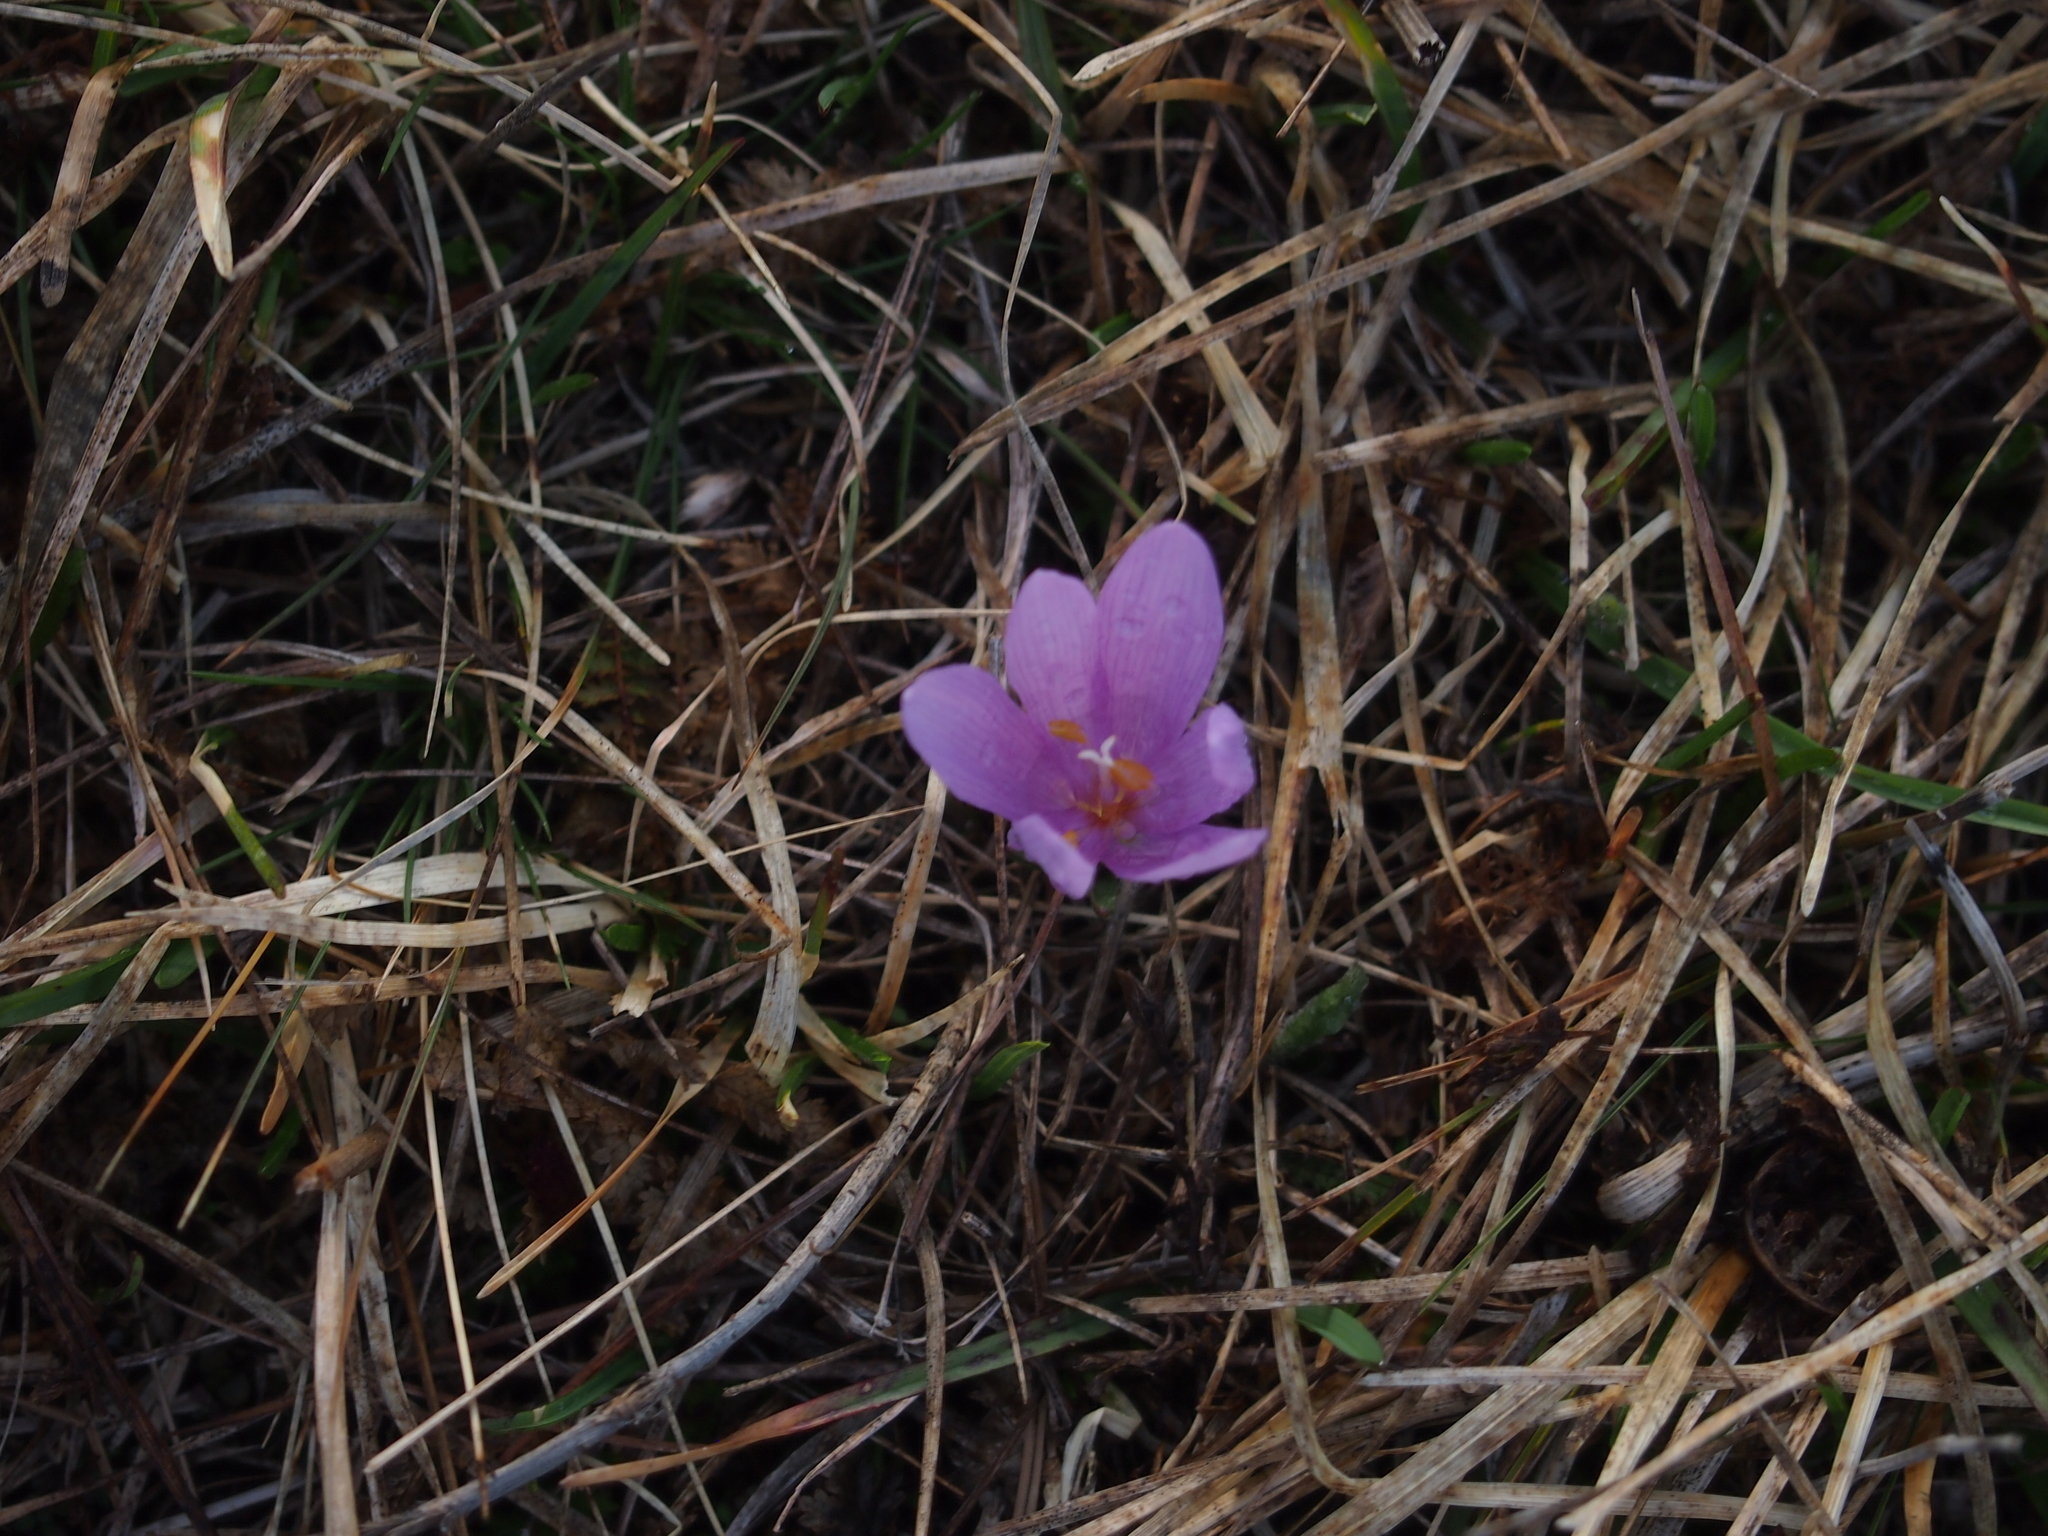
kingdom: Plantae
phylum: Tracheophyta
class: Liliopsida
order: Liliales
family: Colchicaceae
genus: Colchicum
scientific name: Colchicum bulbocodium
